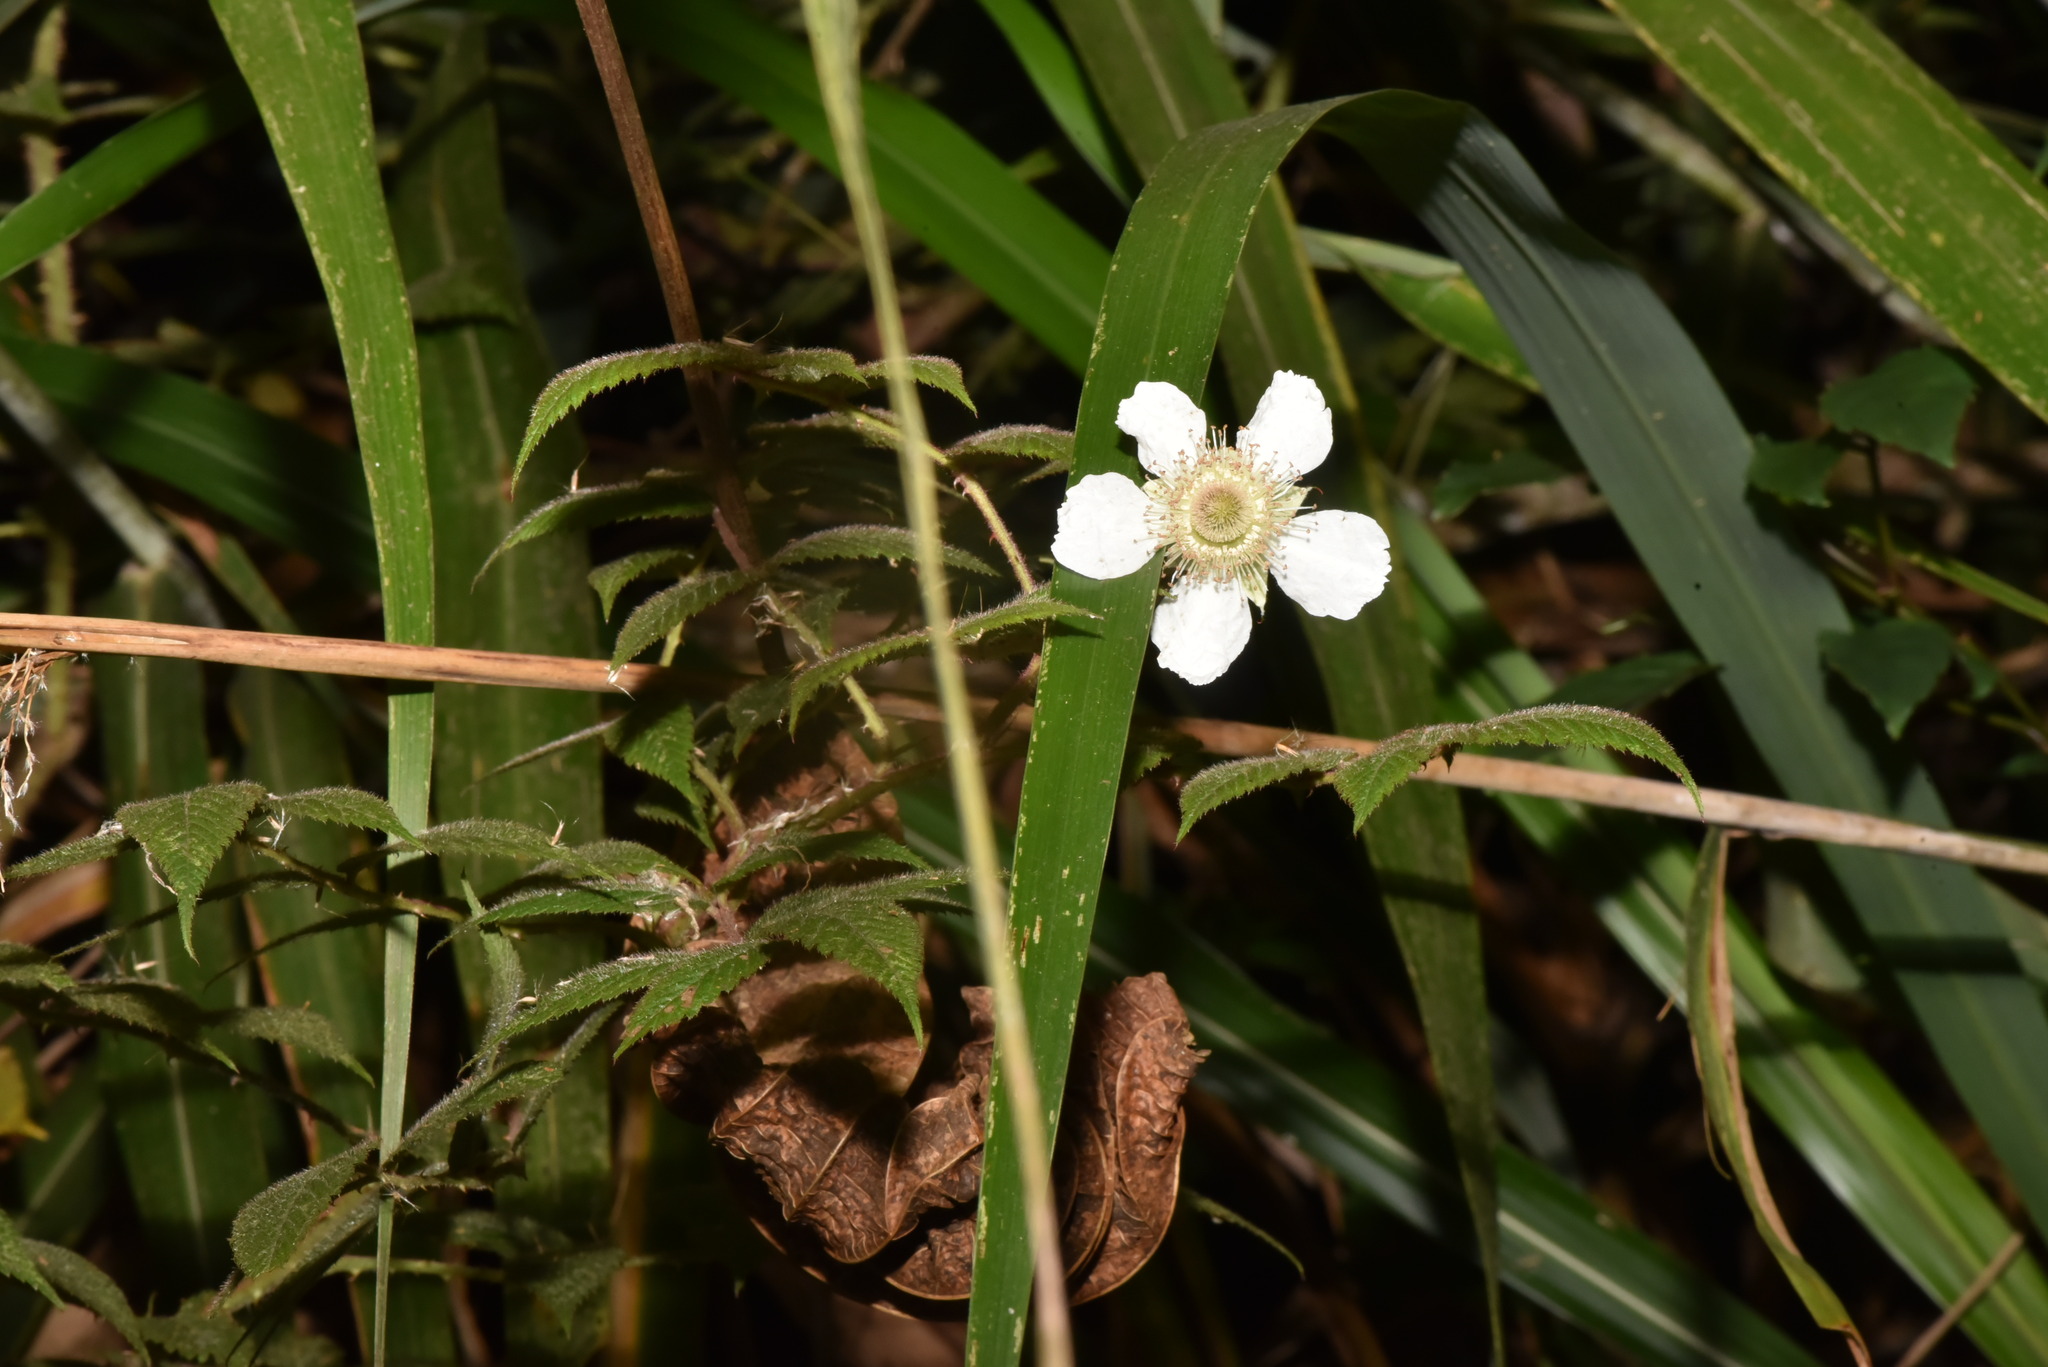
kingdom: Plantae
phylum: Tracheophyta
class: Magnoliopsida
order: Rosales
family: Rosaceae
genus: Rubus
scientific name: Rubus croceacanthus
